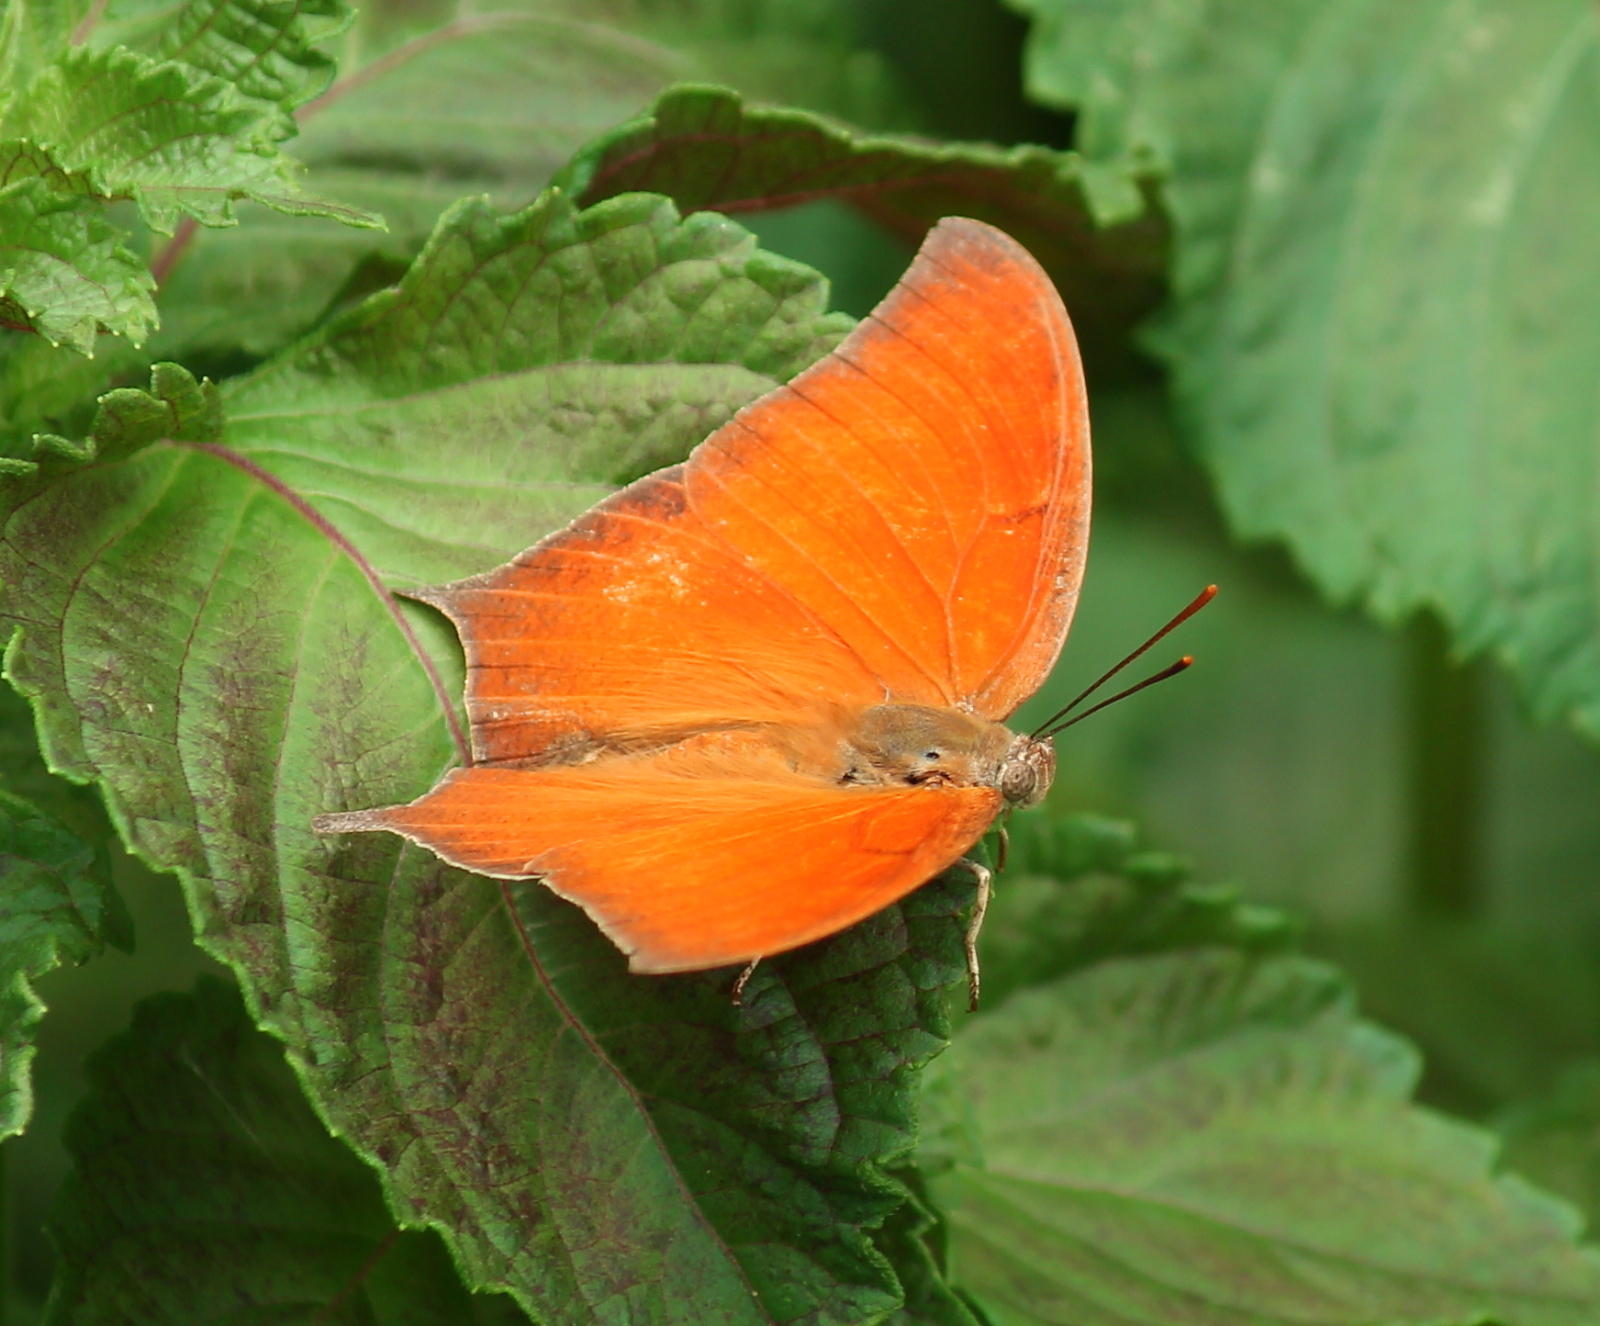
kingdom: Animalia
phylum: Arthropoda
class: Insecta
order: Lepidoptera
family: Nymphalidae
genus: Anaea
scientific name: Anaea andria
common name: Goatweed leafwing
